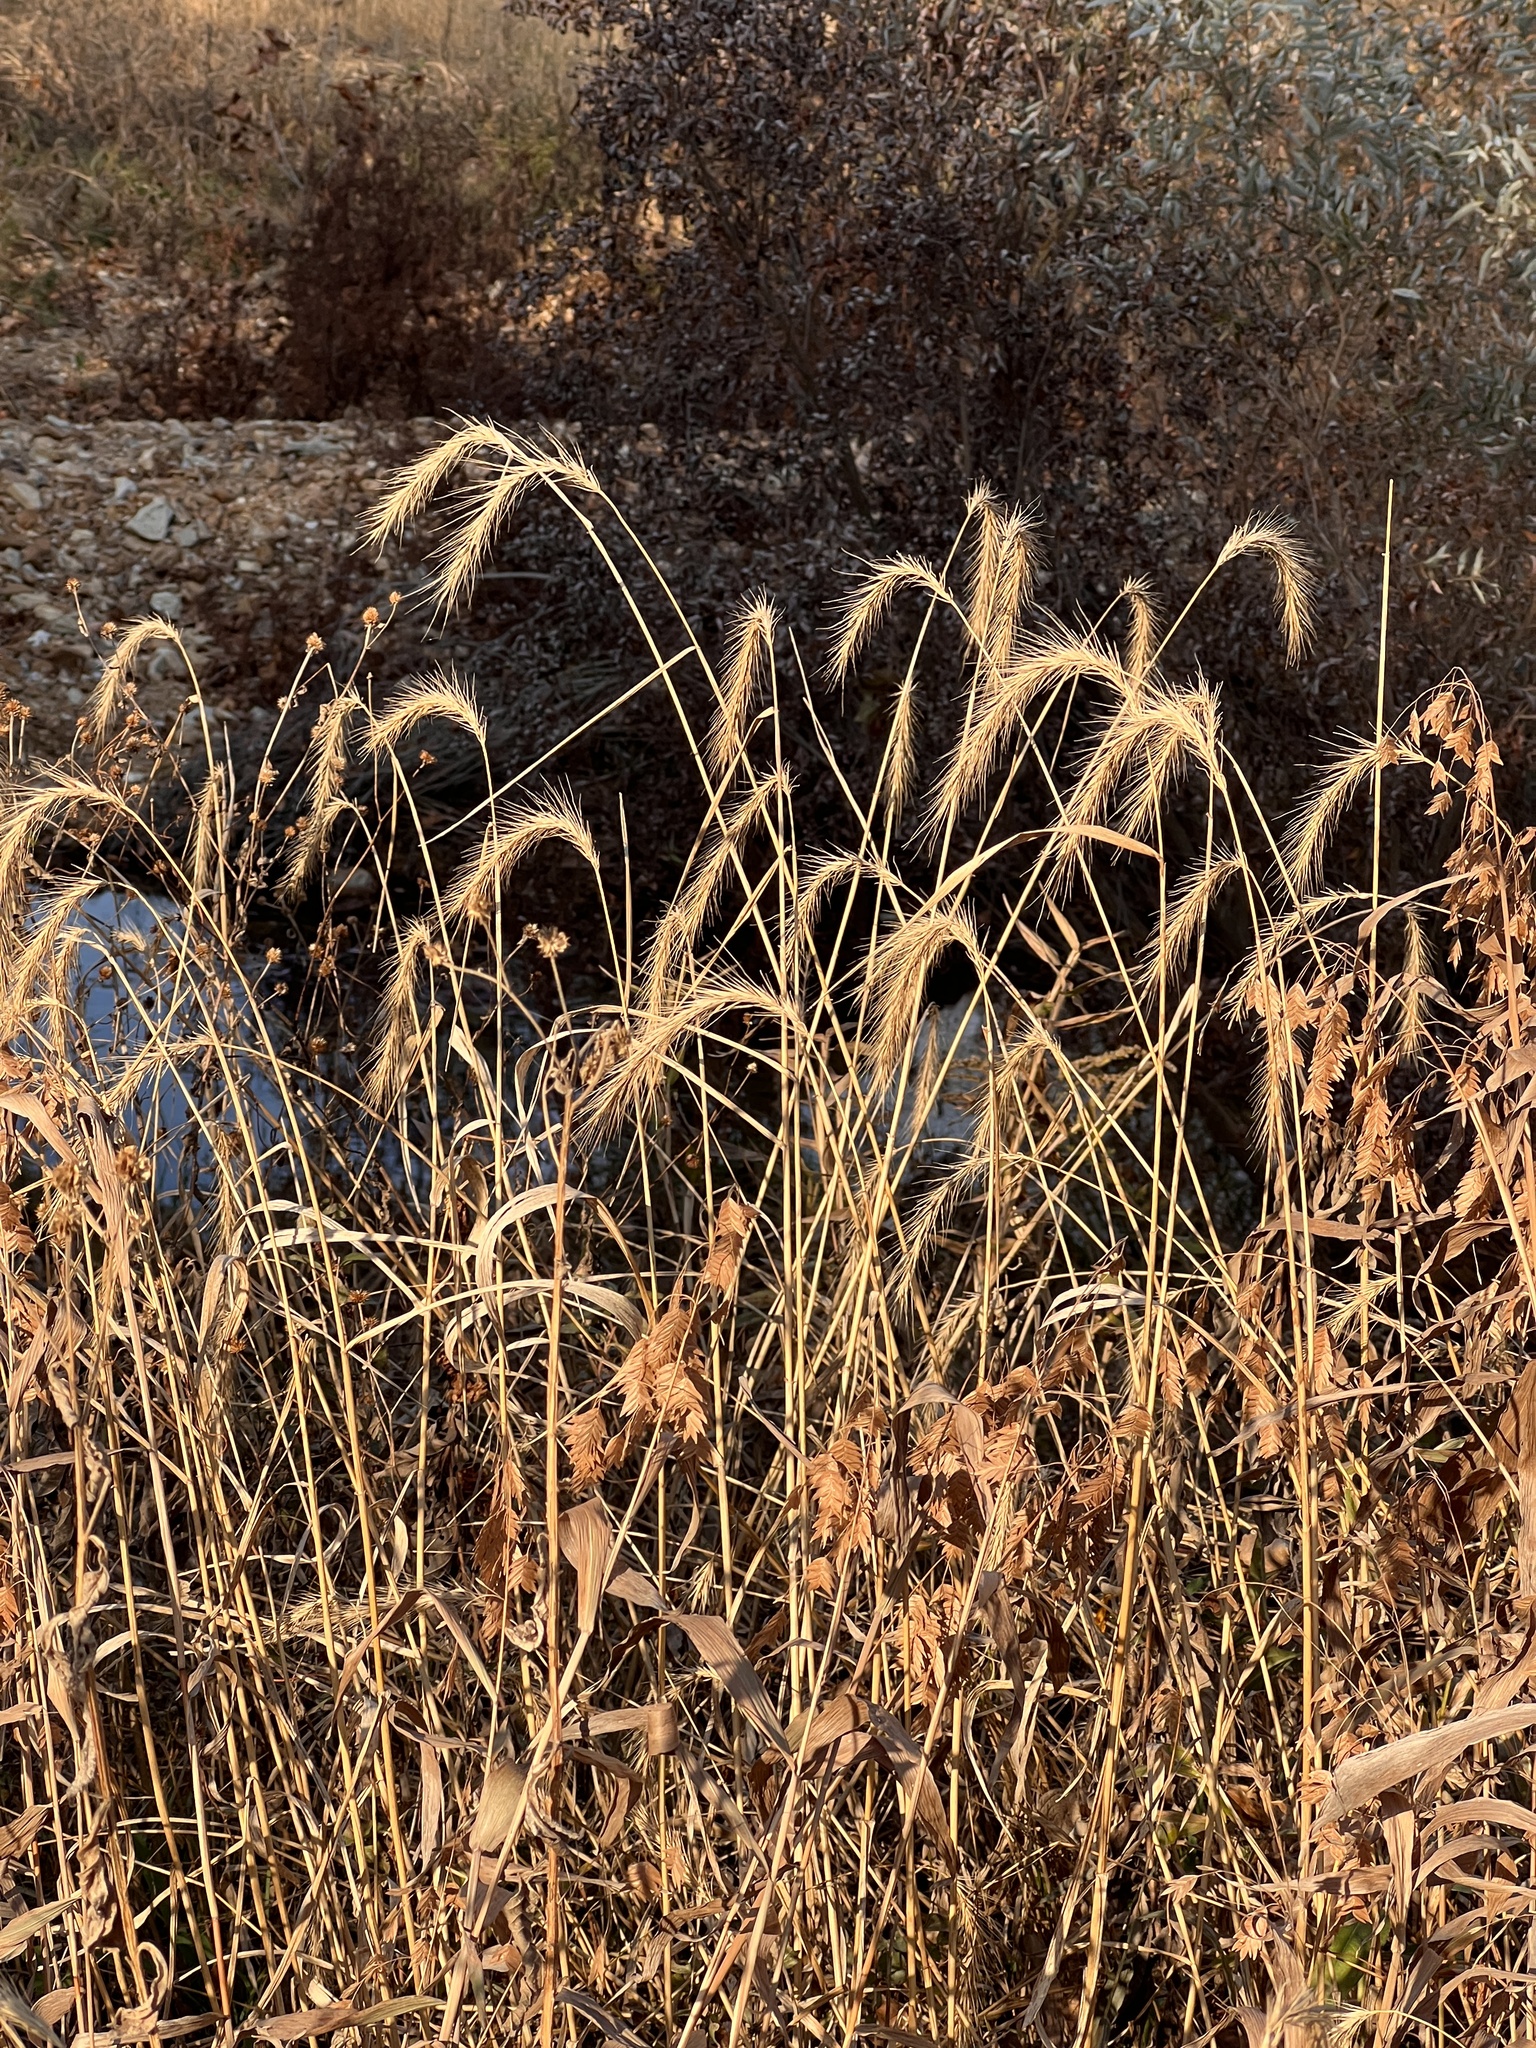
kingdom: Plantae
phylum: Tracheophyta
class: Liliopsida
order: Poales
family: Poaceae
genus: Elymus
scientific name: Elymus riparius
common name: Eastern riverbank wild rye
